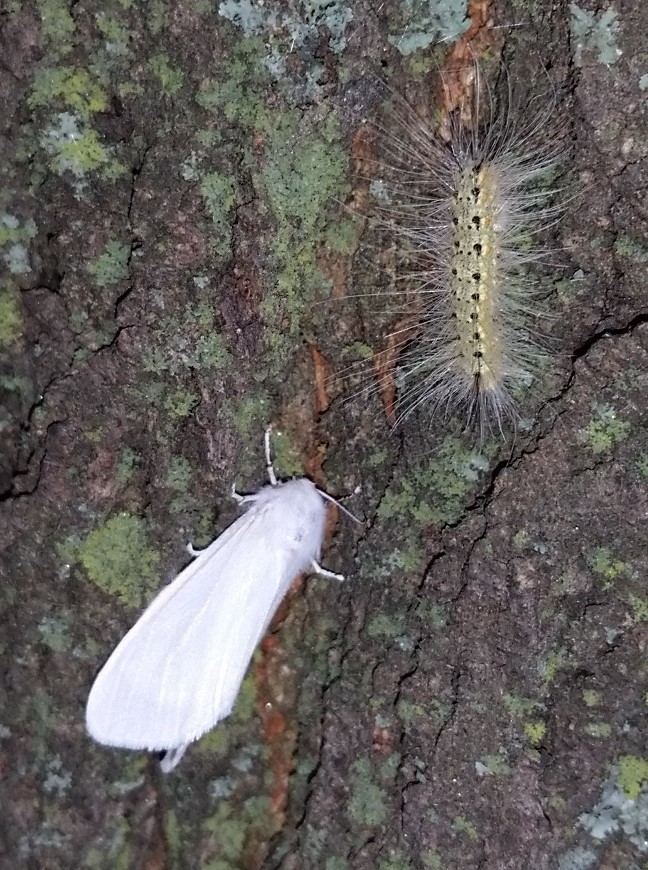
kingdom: Animalia
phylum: Arthropoda
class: Insecta
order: Lepidoptera
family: Erebidae
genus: Hyphantria
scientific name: Hyphantria cunea
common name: American white moth
